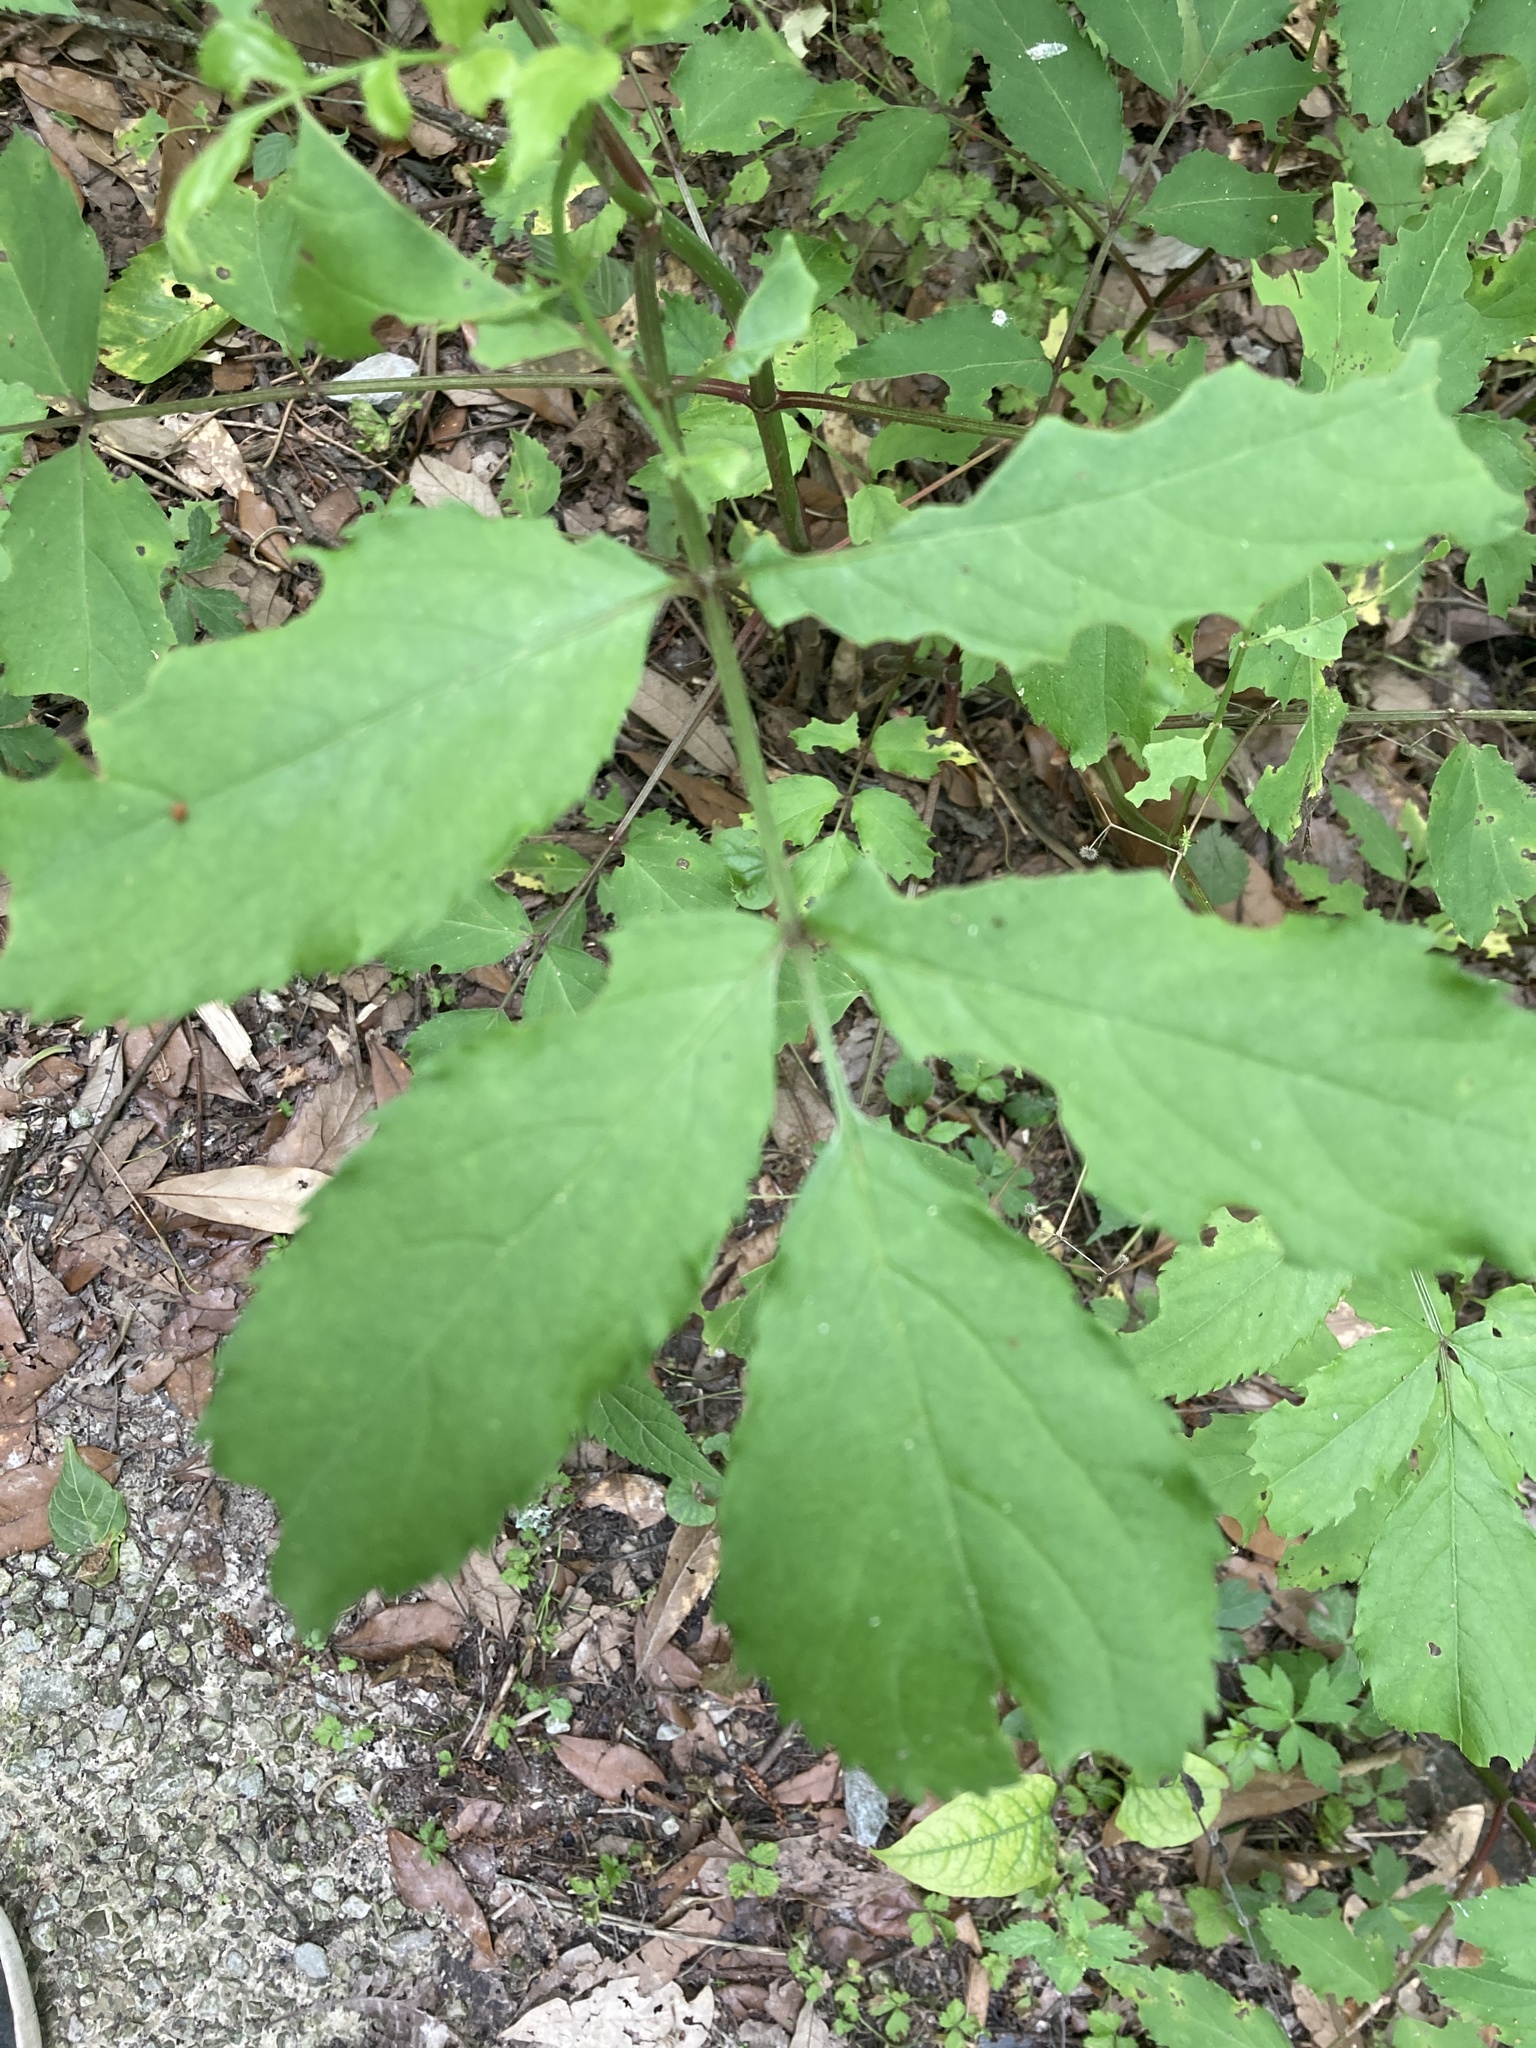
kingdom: Plantae
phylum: Tracheophyta
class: Magnoliopsida
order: Dipsacales
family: Viburnaceae
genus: Sambucus
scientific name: Sambucus canadensis
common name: American elder
